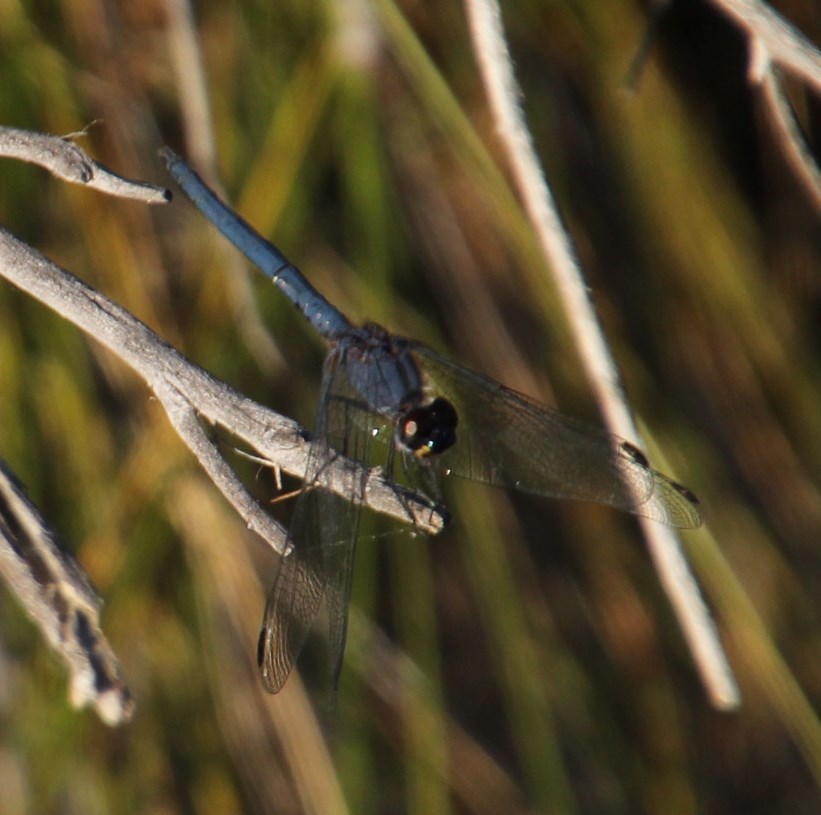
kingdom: Animalia
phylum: Arthropoda
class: Insecta
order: Odonata
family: Libellulidae
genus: Trithemis
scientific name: Trithemis furva
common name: Dark dropwing
